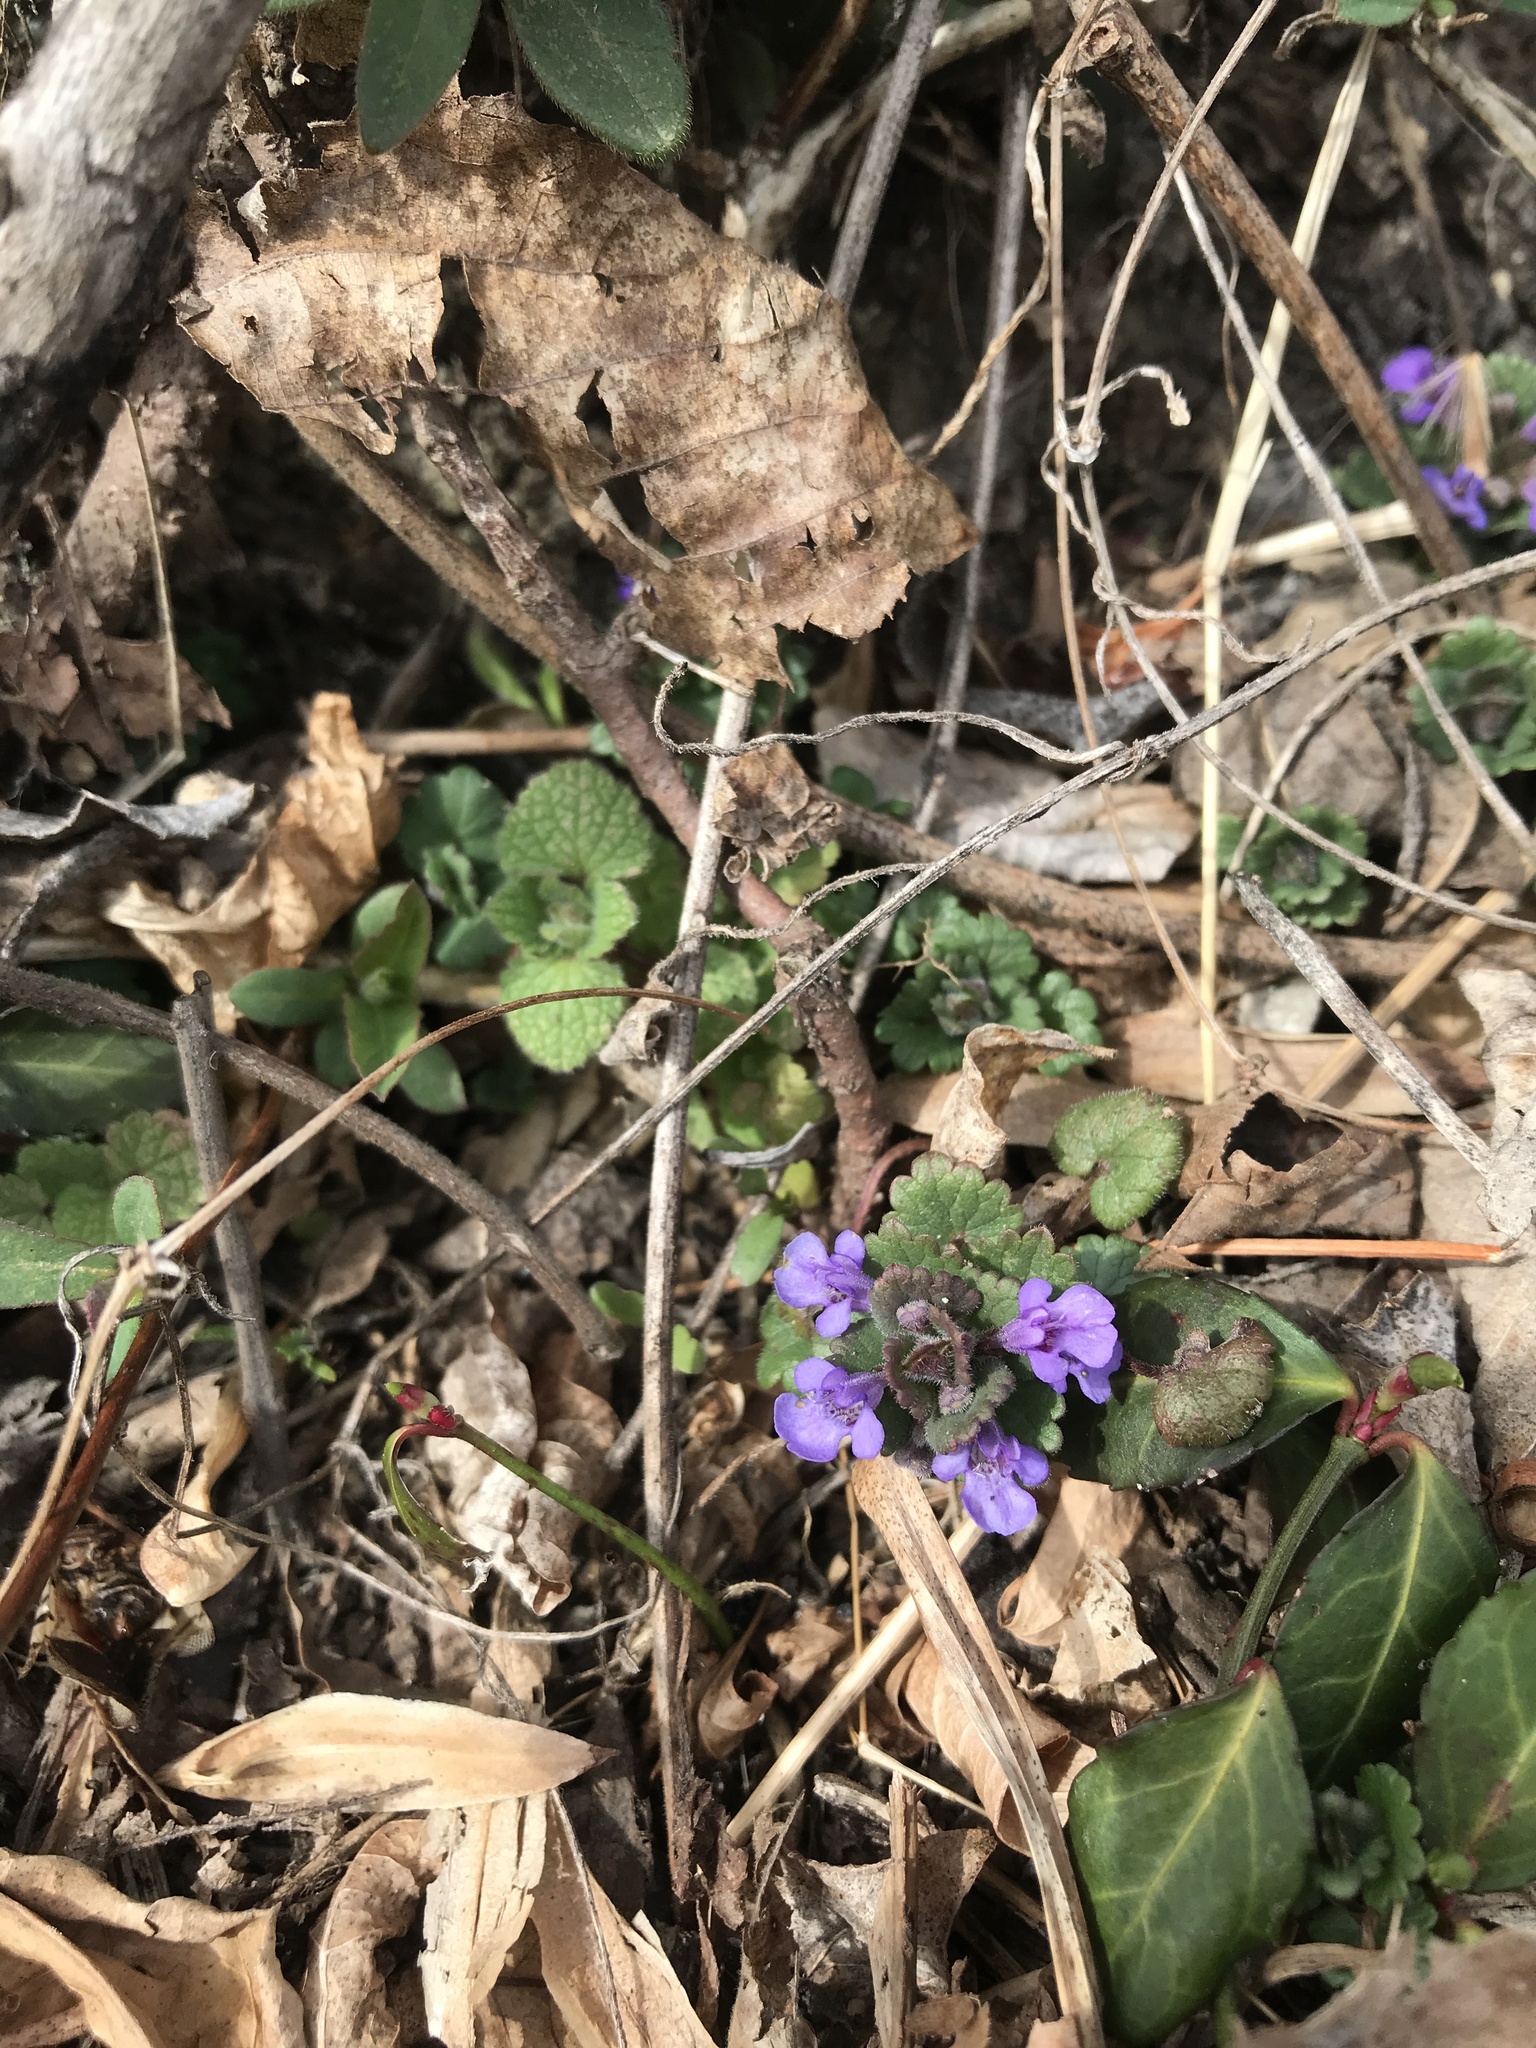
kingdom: Plantae
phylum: Tracheophyta
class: Magnoliopsida
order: Lamiales
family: Lamiaceae
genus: Glechoma
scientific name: Glechoma hederacea
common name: Ground ivy
